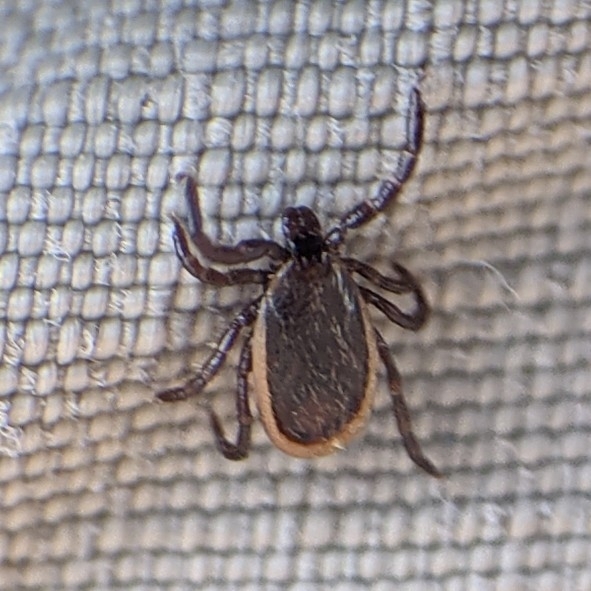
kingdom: Animalia
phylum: Arthropoda
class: Arachnida
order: Ixodida
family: Ixodidae
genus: Ixodes
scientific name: Ixodes scapularis
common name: Black legged tick
